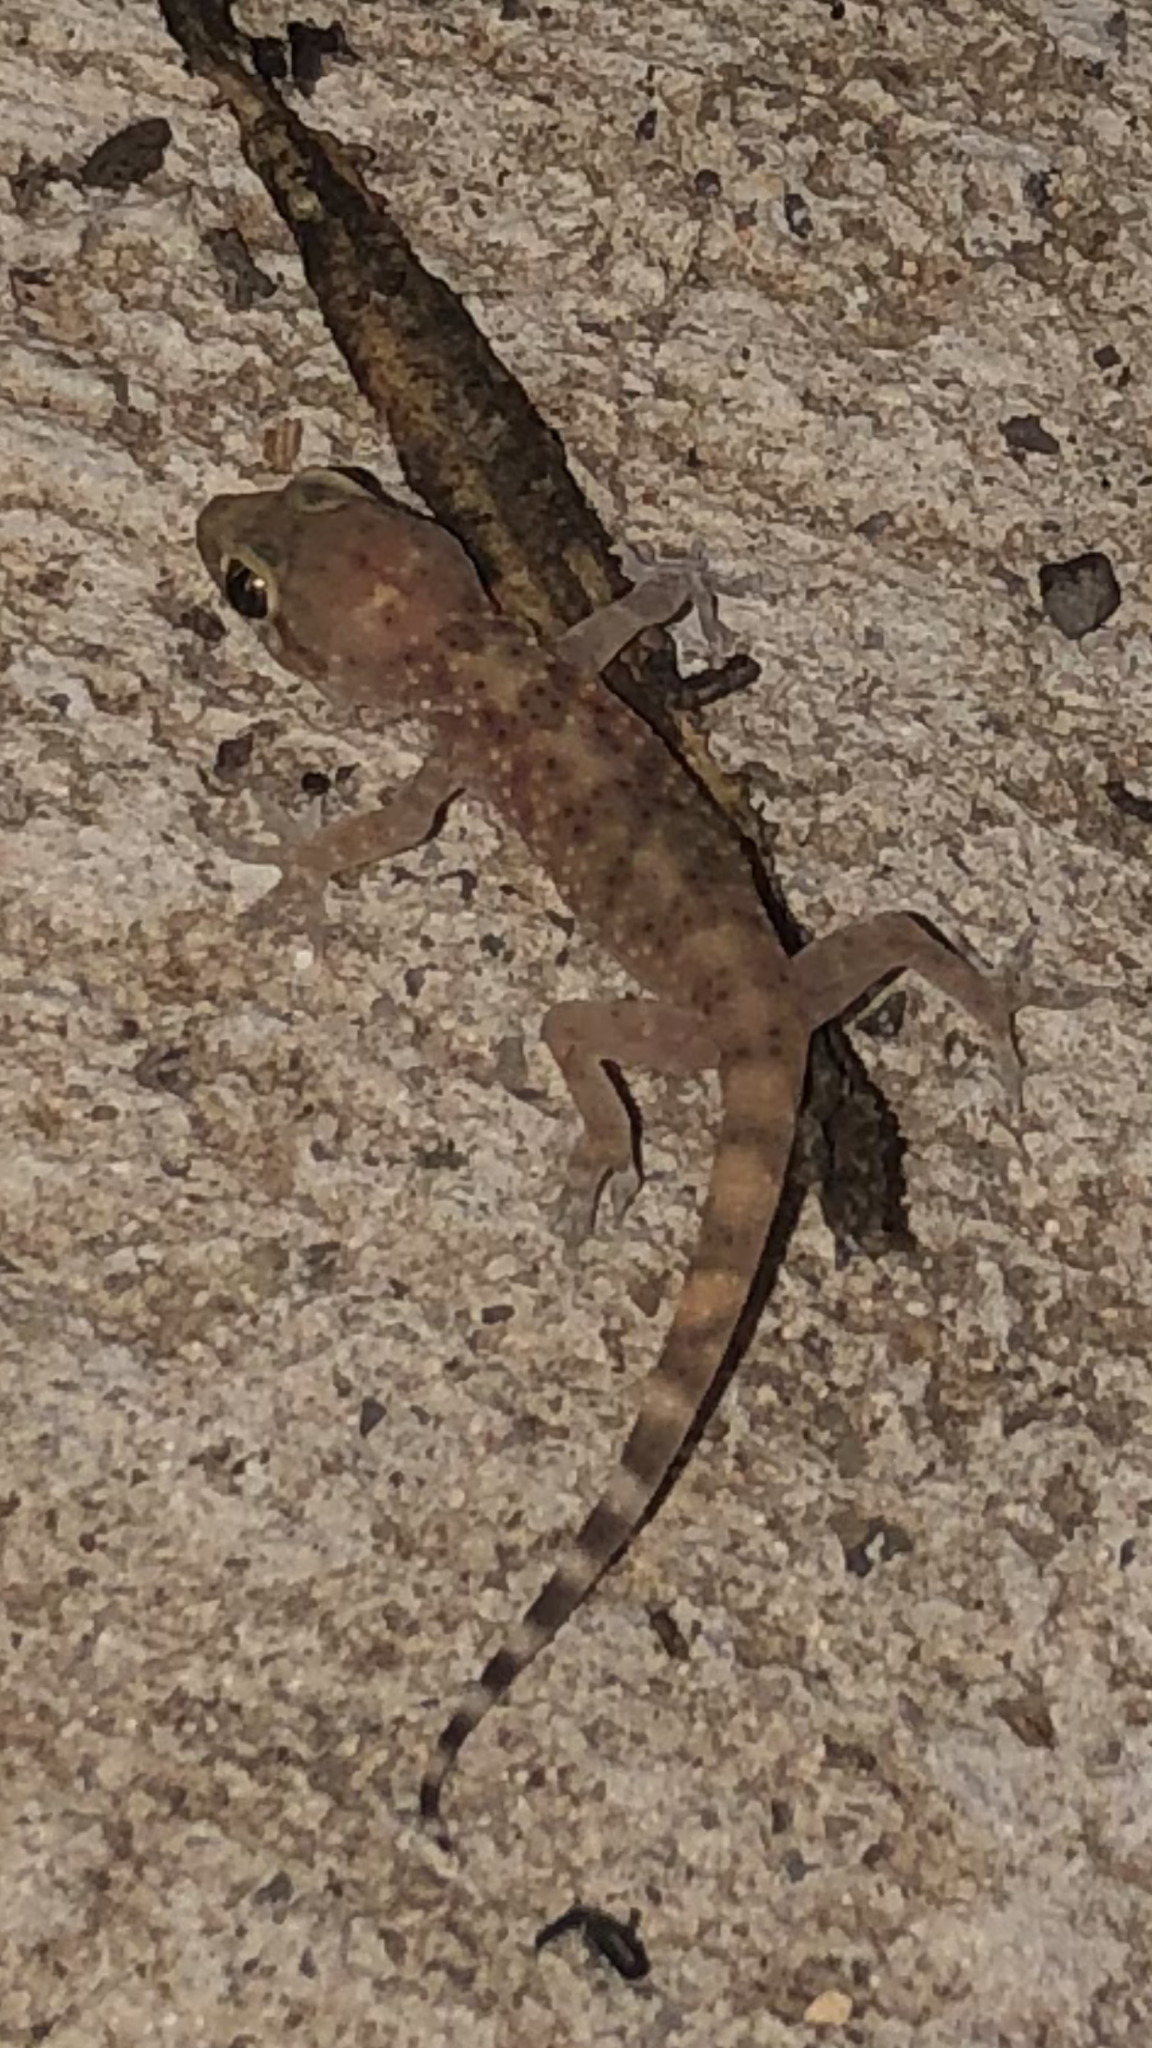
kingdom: Animalia
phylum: Chordata
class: Squamata
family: Gekkonidae
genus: Hemidactylus
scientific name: Hemidactylus turcicus
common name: Turkish gecko
